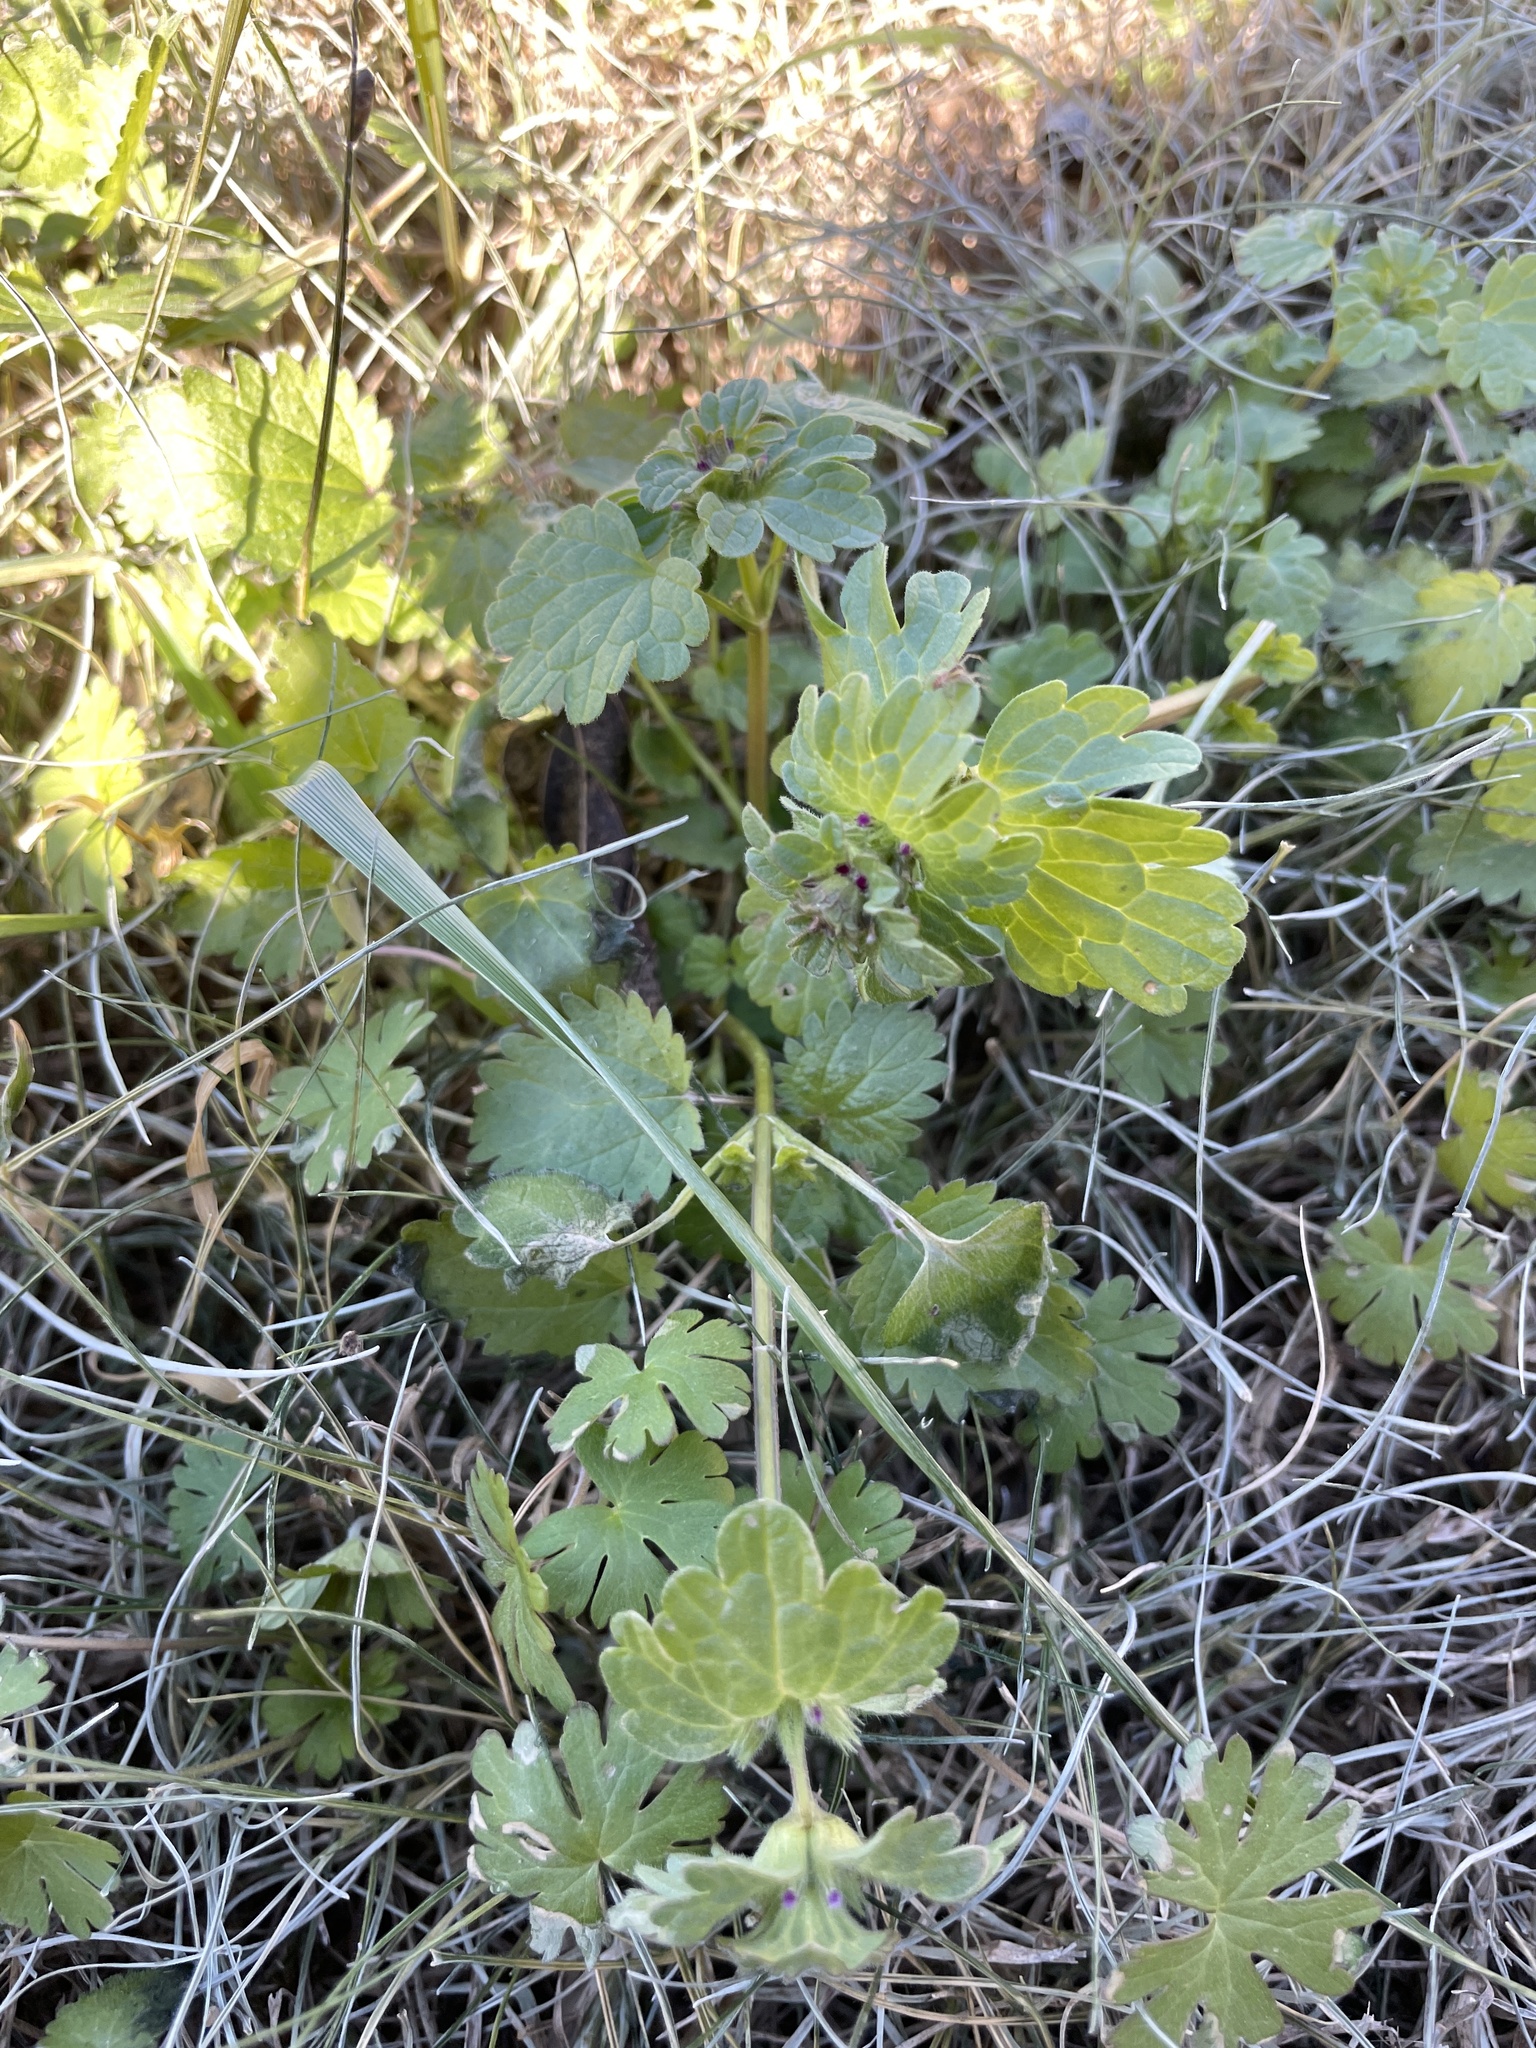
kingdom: Plantae
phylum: Tracheophyta
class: Magnoliopsida
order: Lamiales
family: Lamiaceae
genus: Lamium
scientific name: Lamium amplexicaule
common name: Henbit dead-nettle
